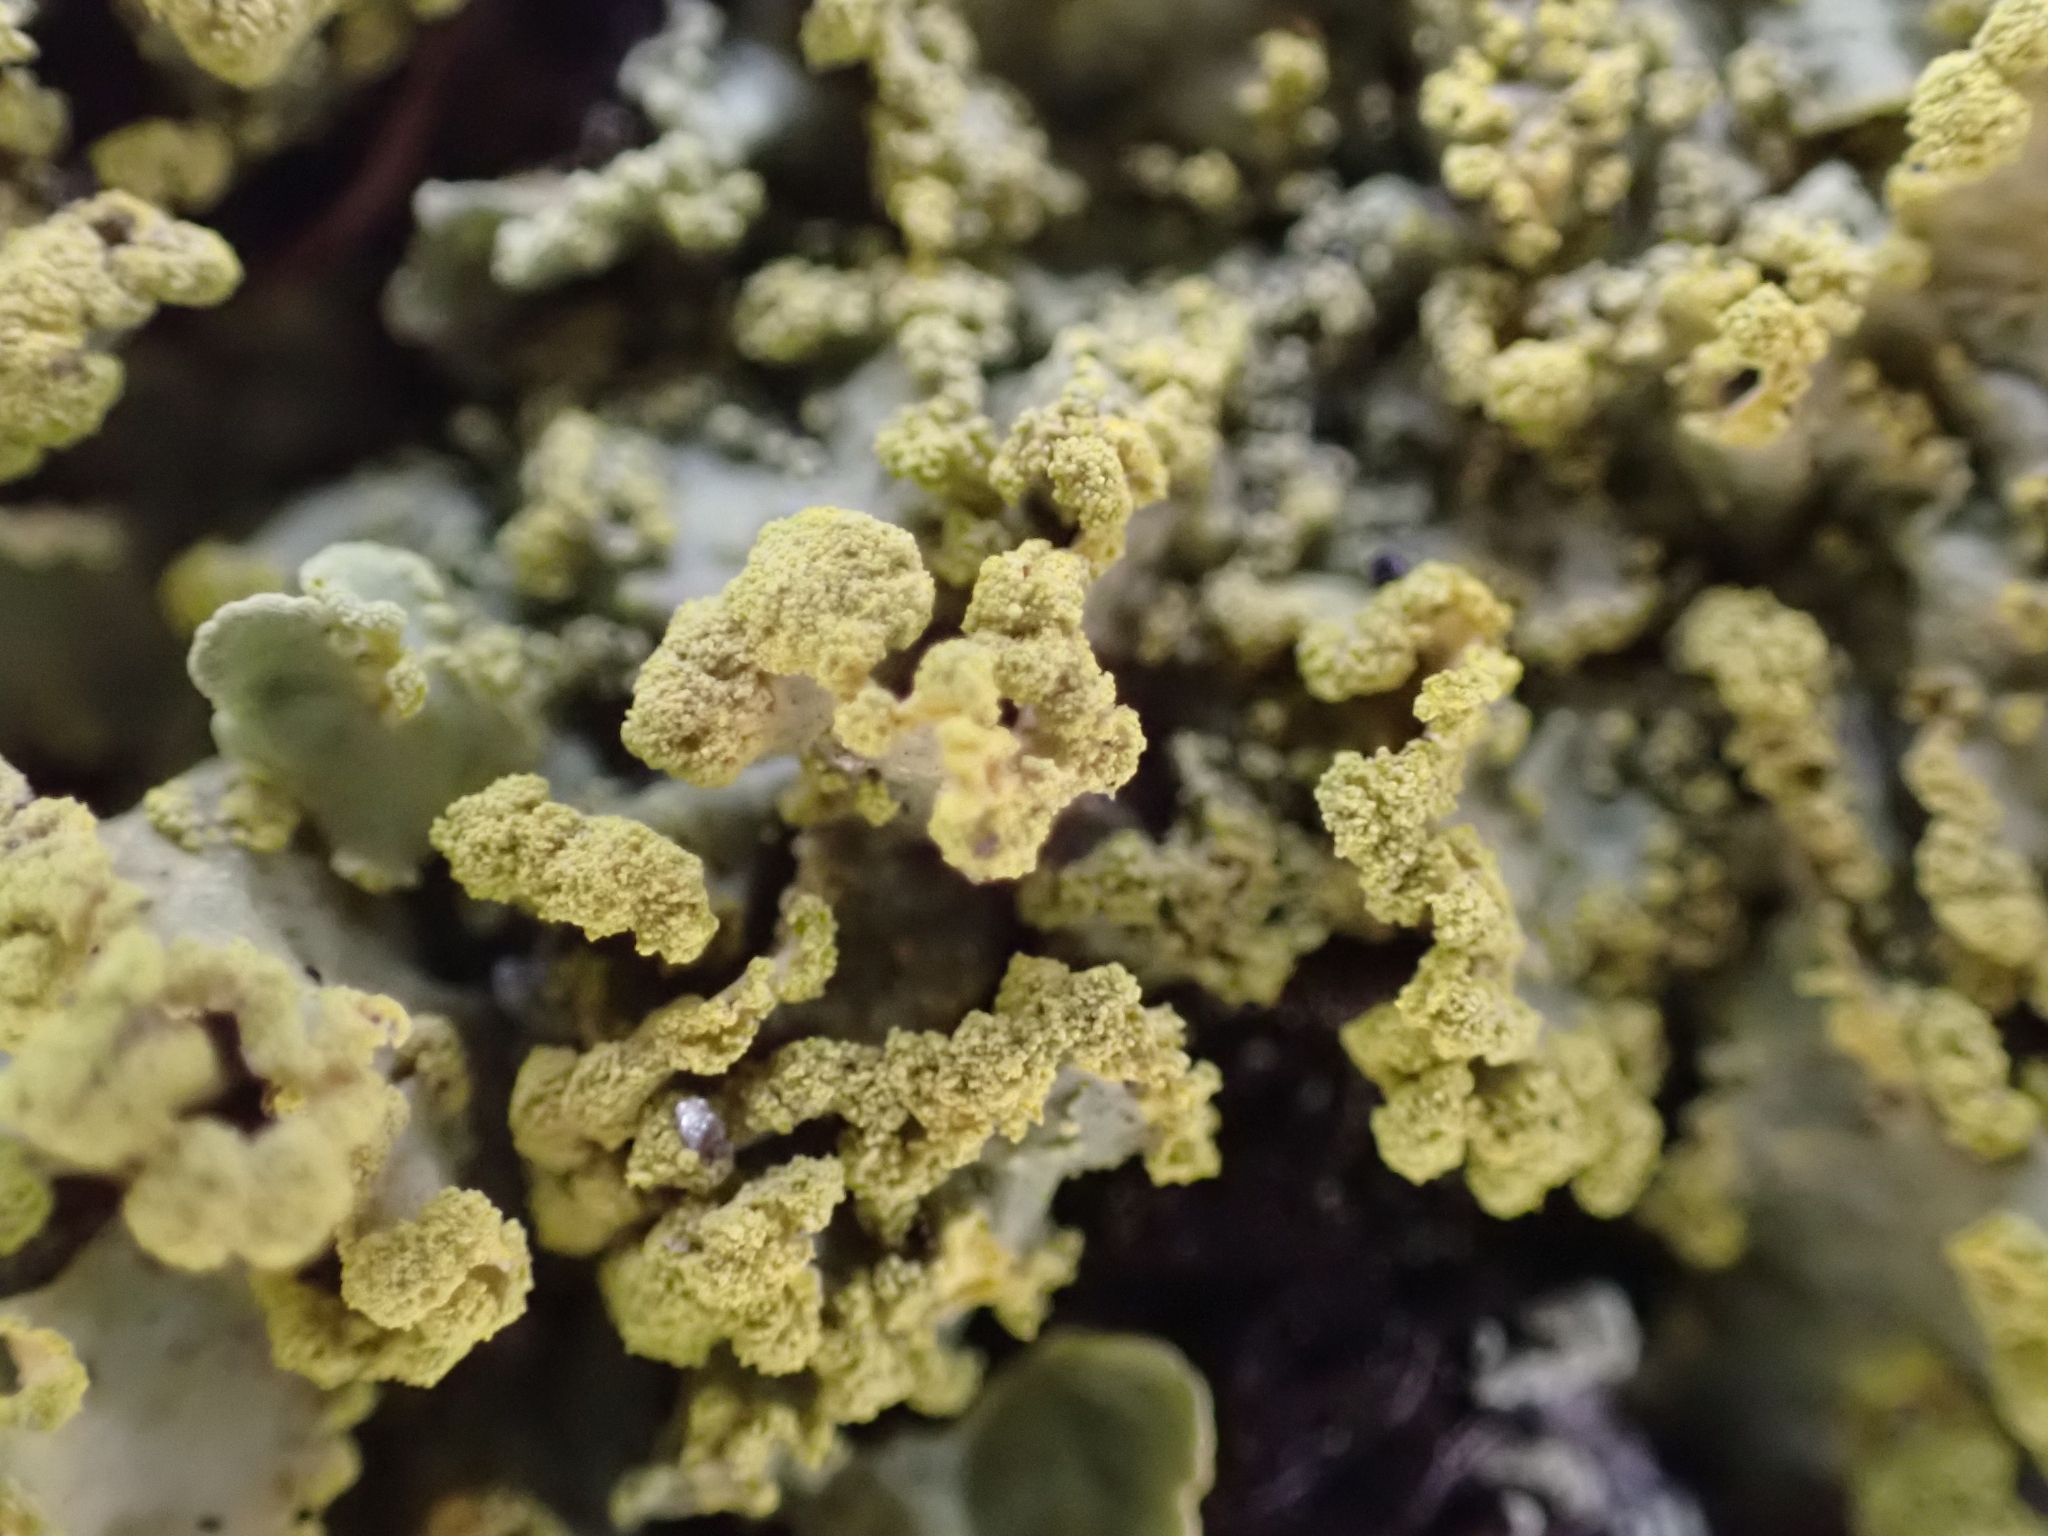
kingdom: Fungi
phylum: Ascomycota
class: Lecanoromycetes
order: Lecanorales
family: Parmeliaceae
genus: Vulpicida
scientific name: Vulpicida pinastri
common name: Powdered sunshine lichen
